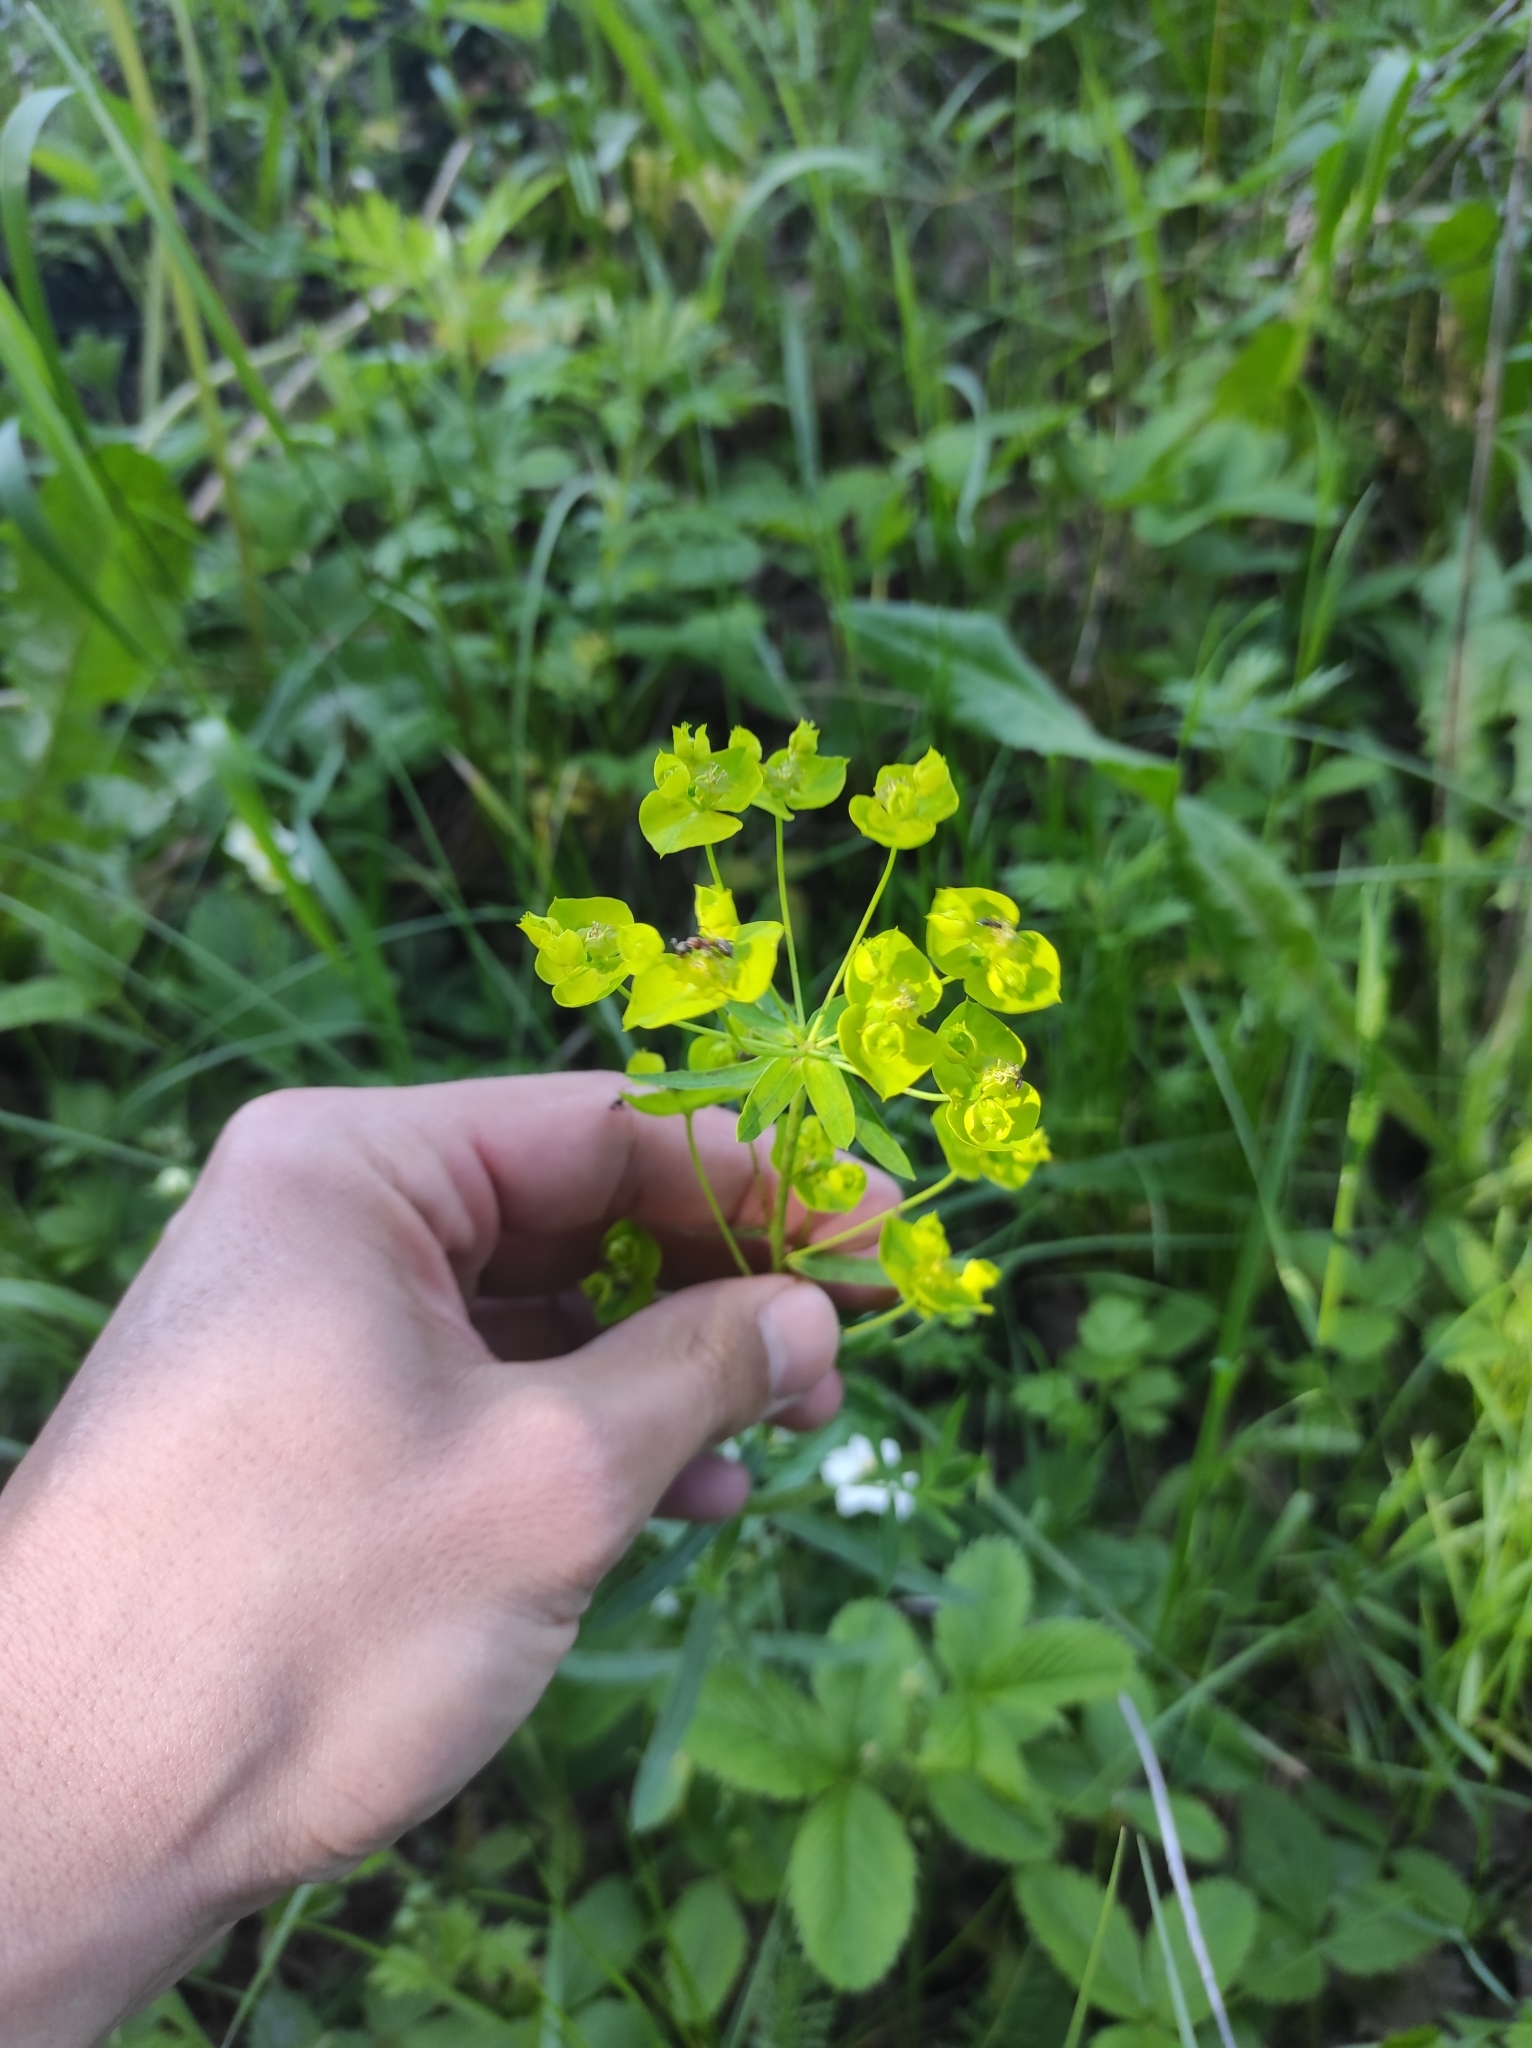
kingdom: Plantae
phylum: Tracheophyta
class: Magnoliopsida
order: Malpighiales
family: Euphorbiaceae
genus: Euphorbia
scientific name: Euphorbia virgata
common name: Leafy spurge
